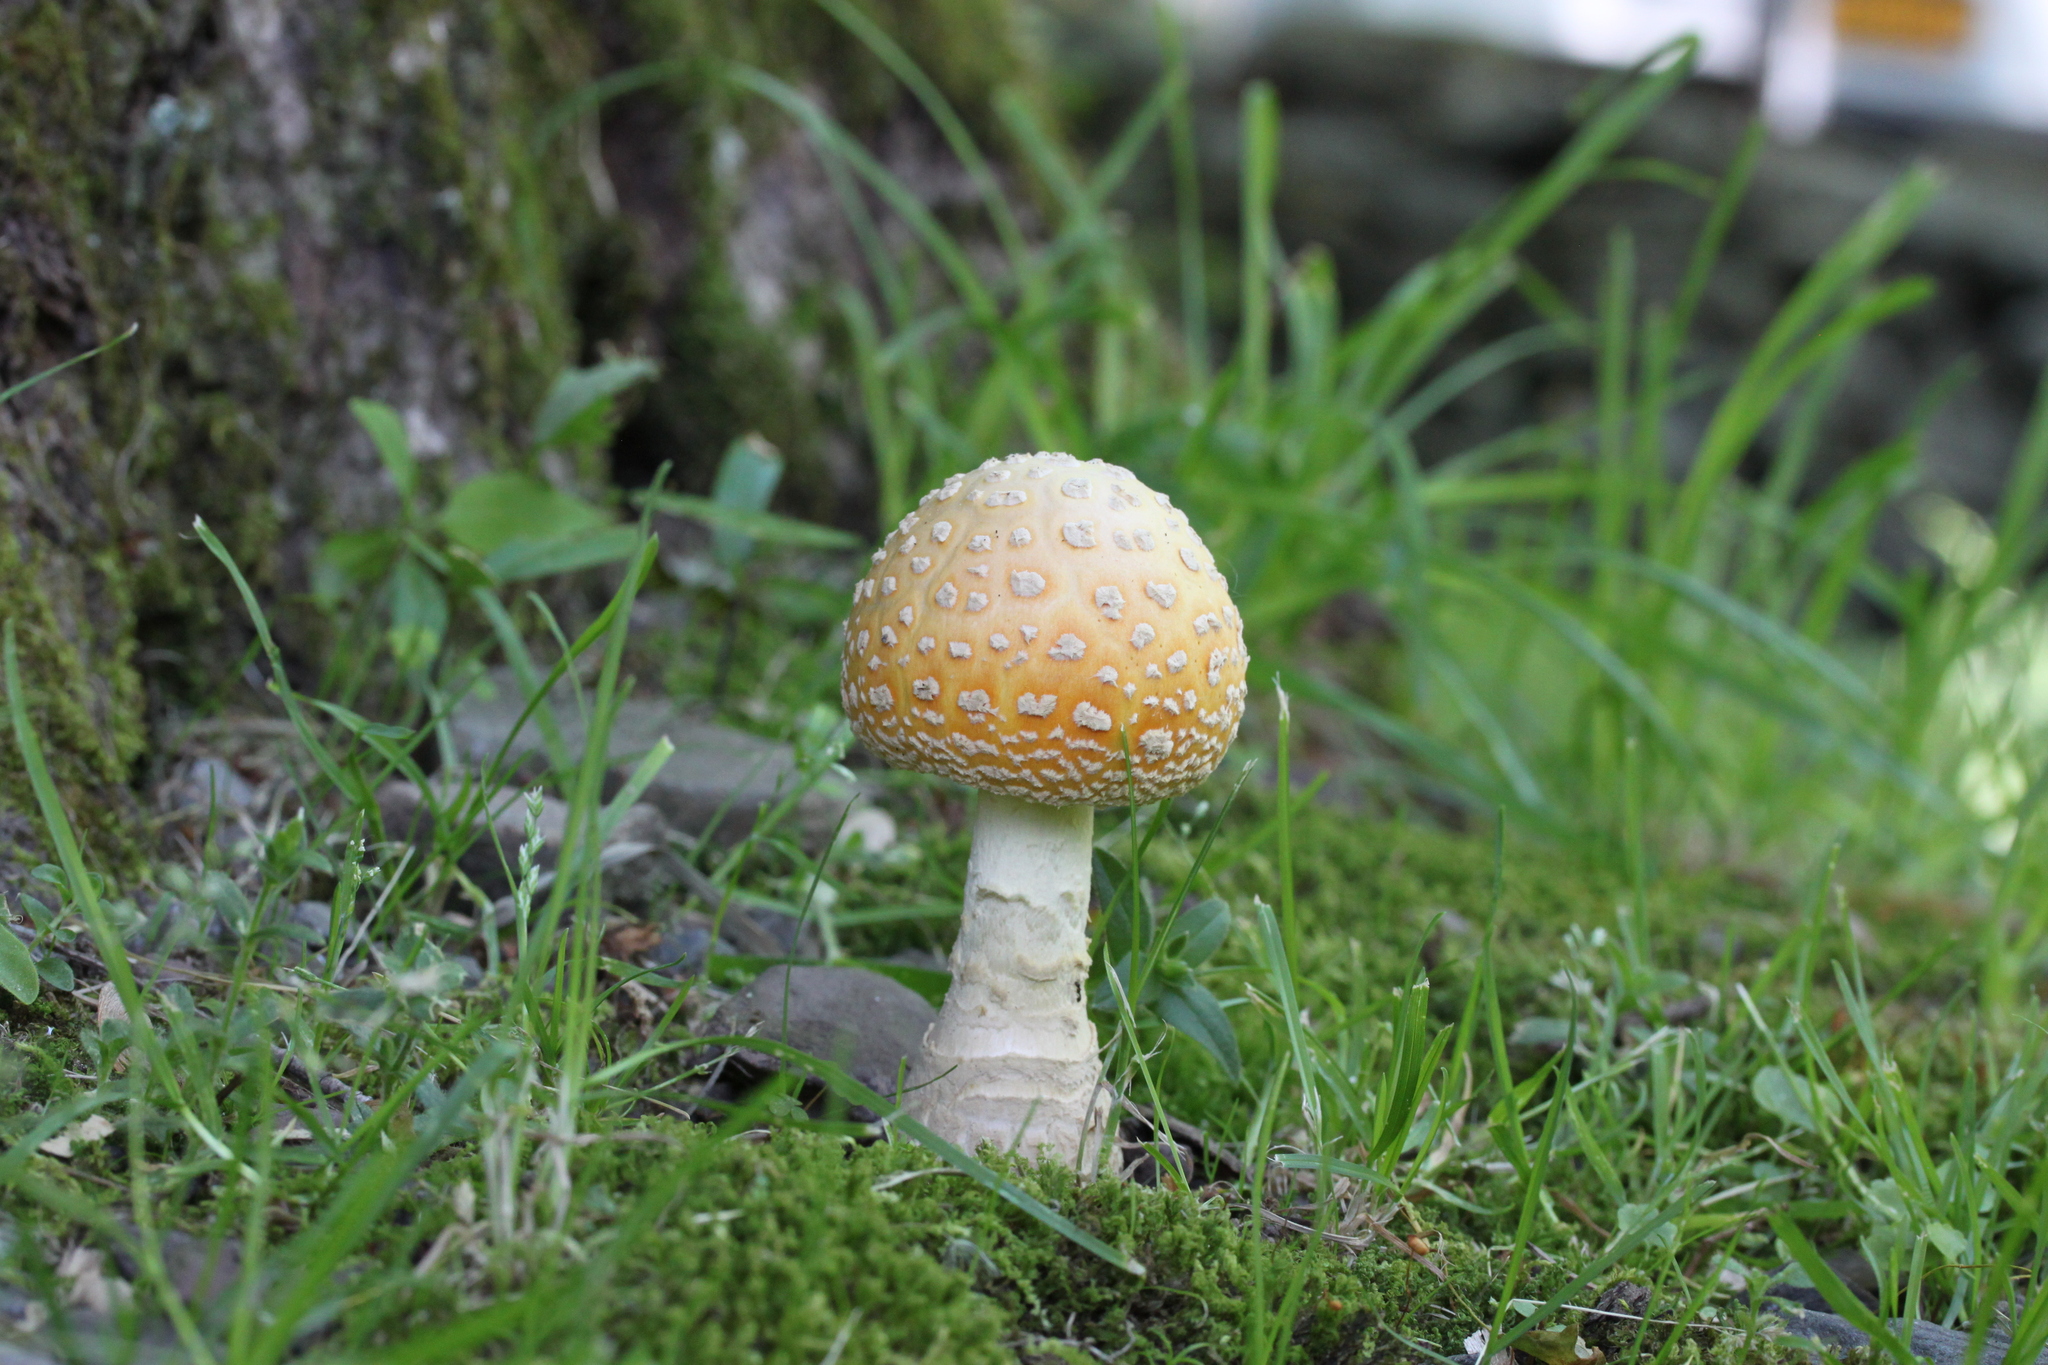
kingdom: Fungi
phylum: Basidiomycota
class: Agaricomycetes
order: Agaricales
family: Amanitaceae
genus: Amanita
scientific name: Amanita muscaria
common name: Fly agaric
